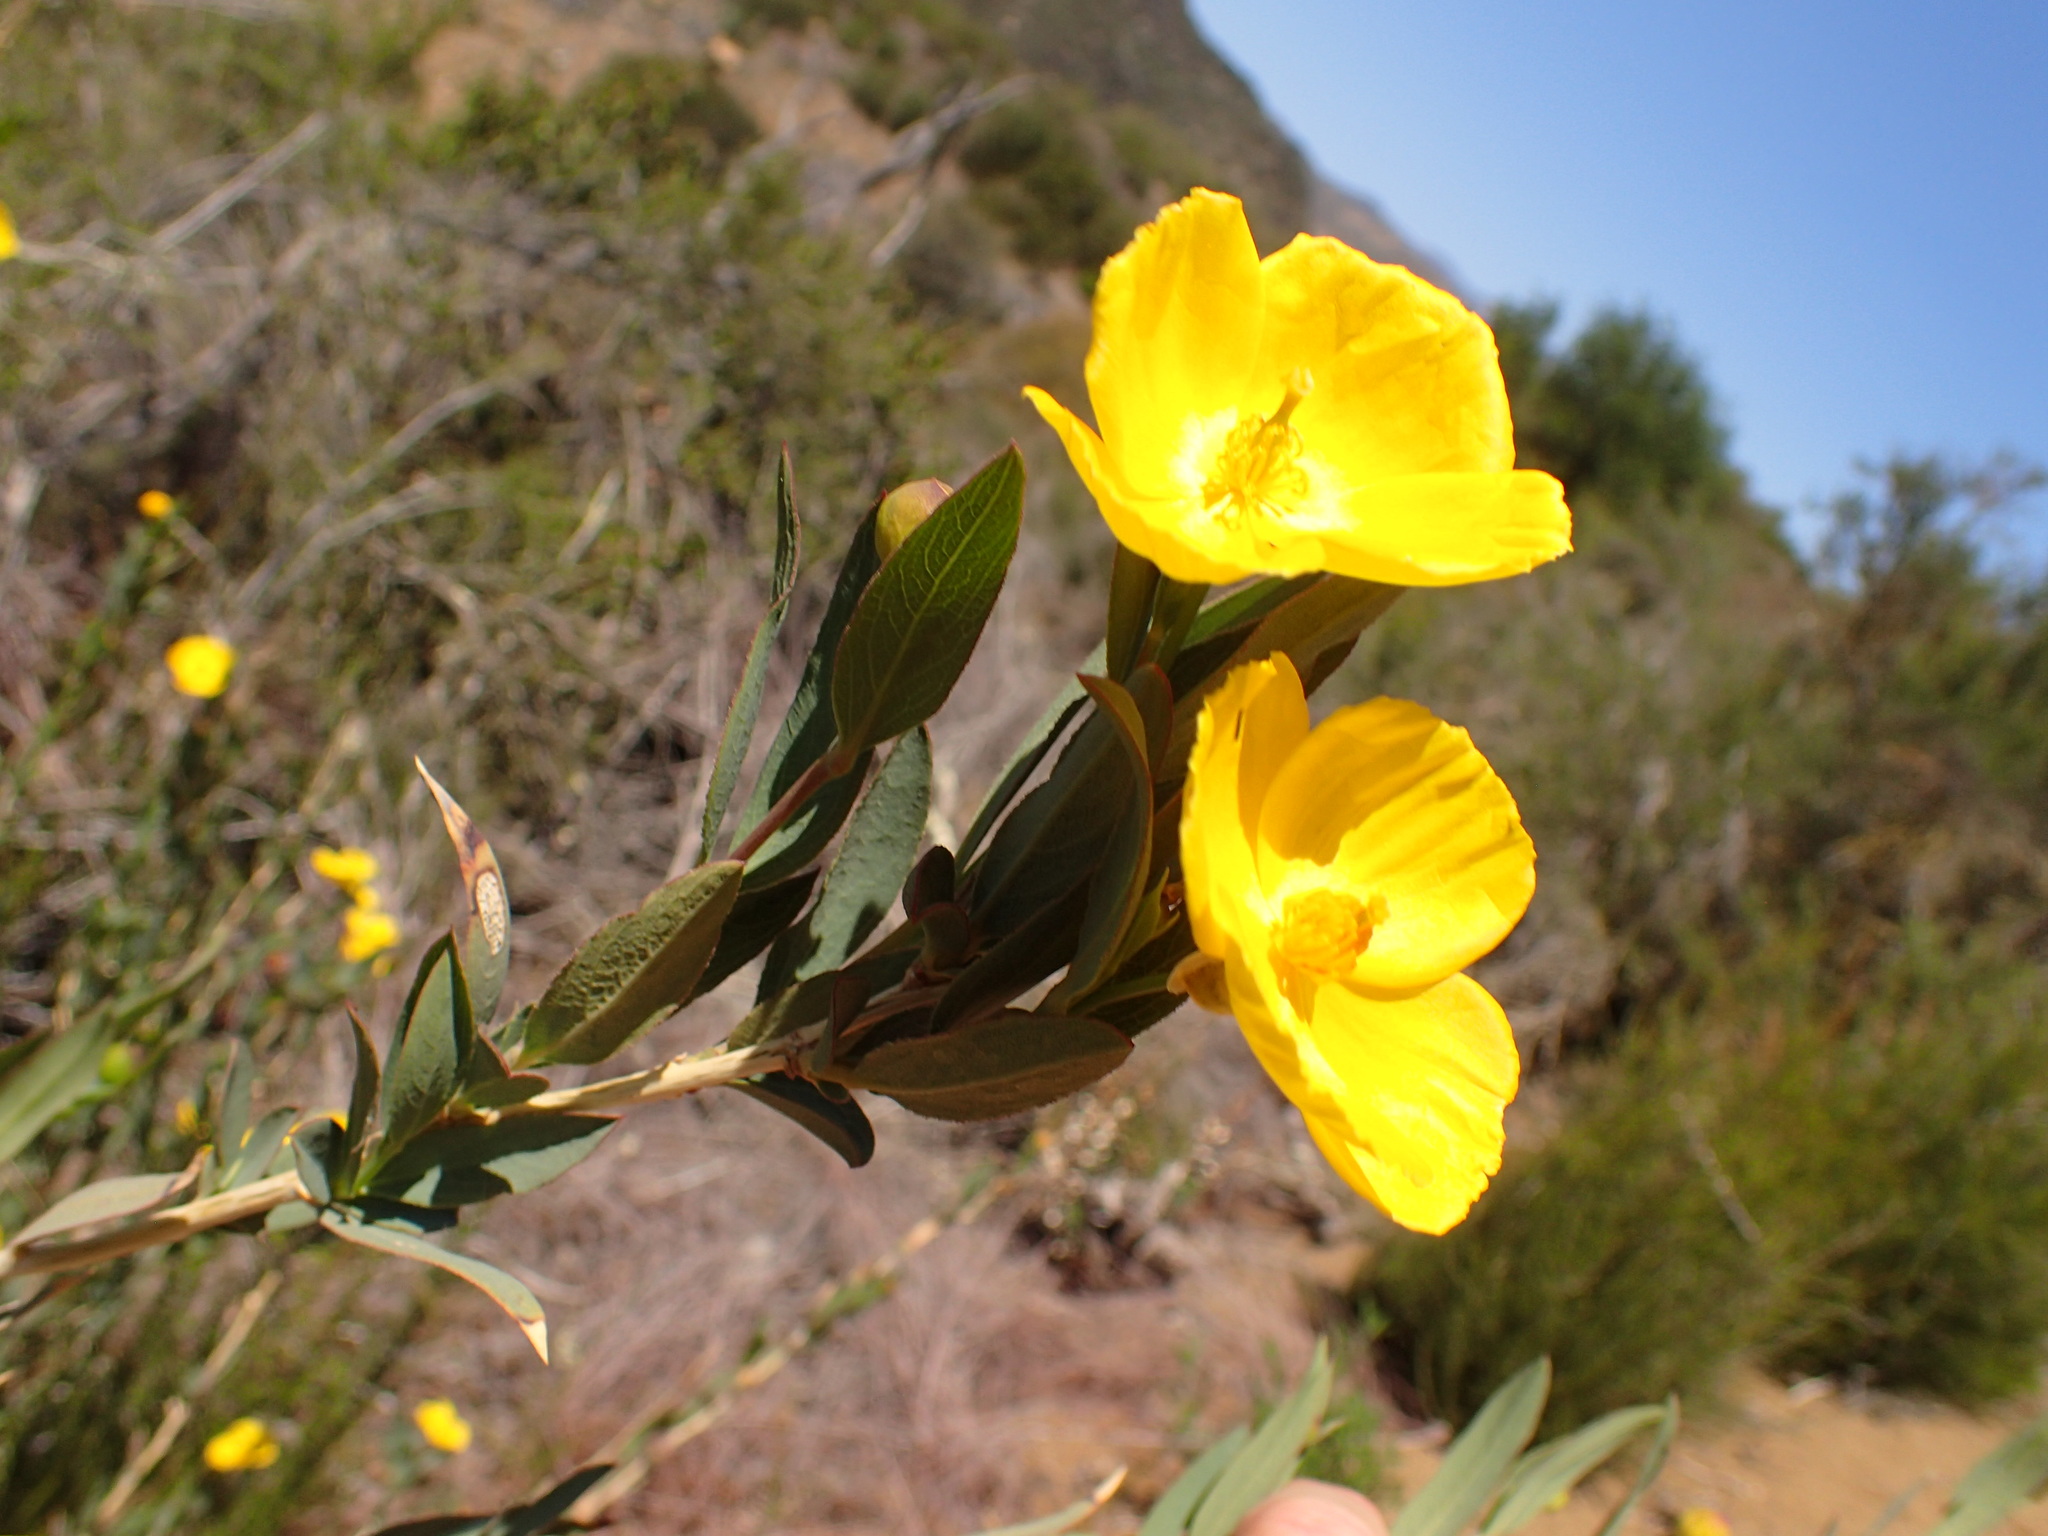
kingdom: Plantae
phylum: Tracheophyta
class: Magnoliopsida
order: Ranunculales
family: Papaveraceae
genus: Dendromecon
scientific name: Dendromecon rigida
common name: Tree poppy
